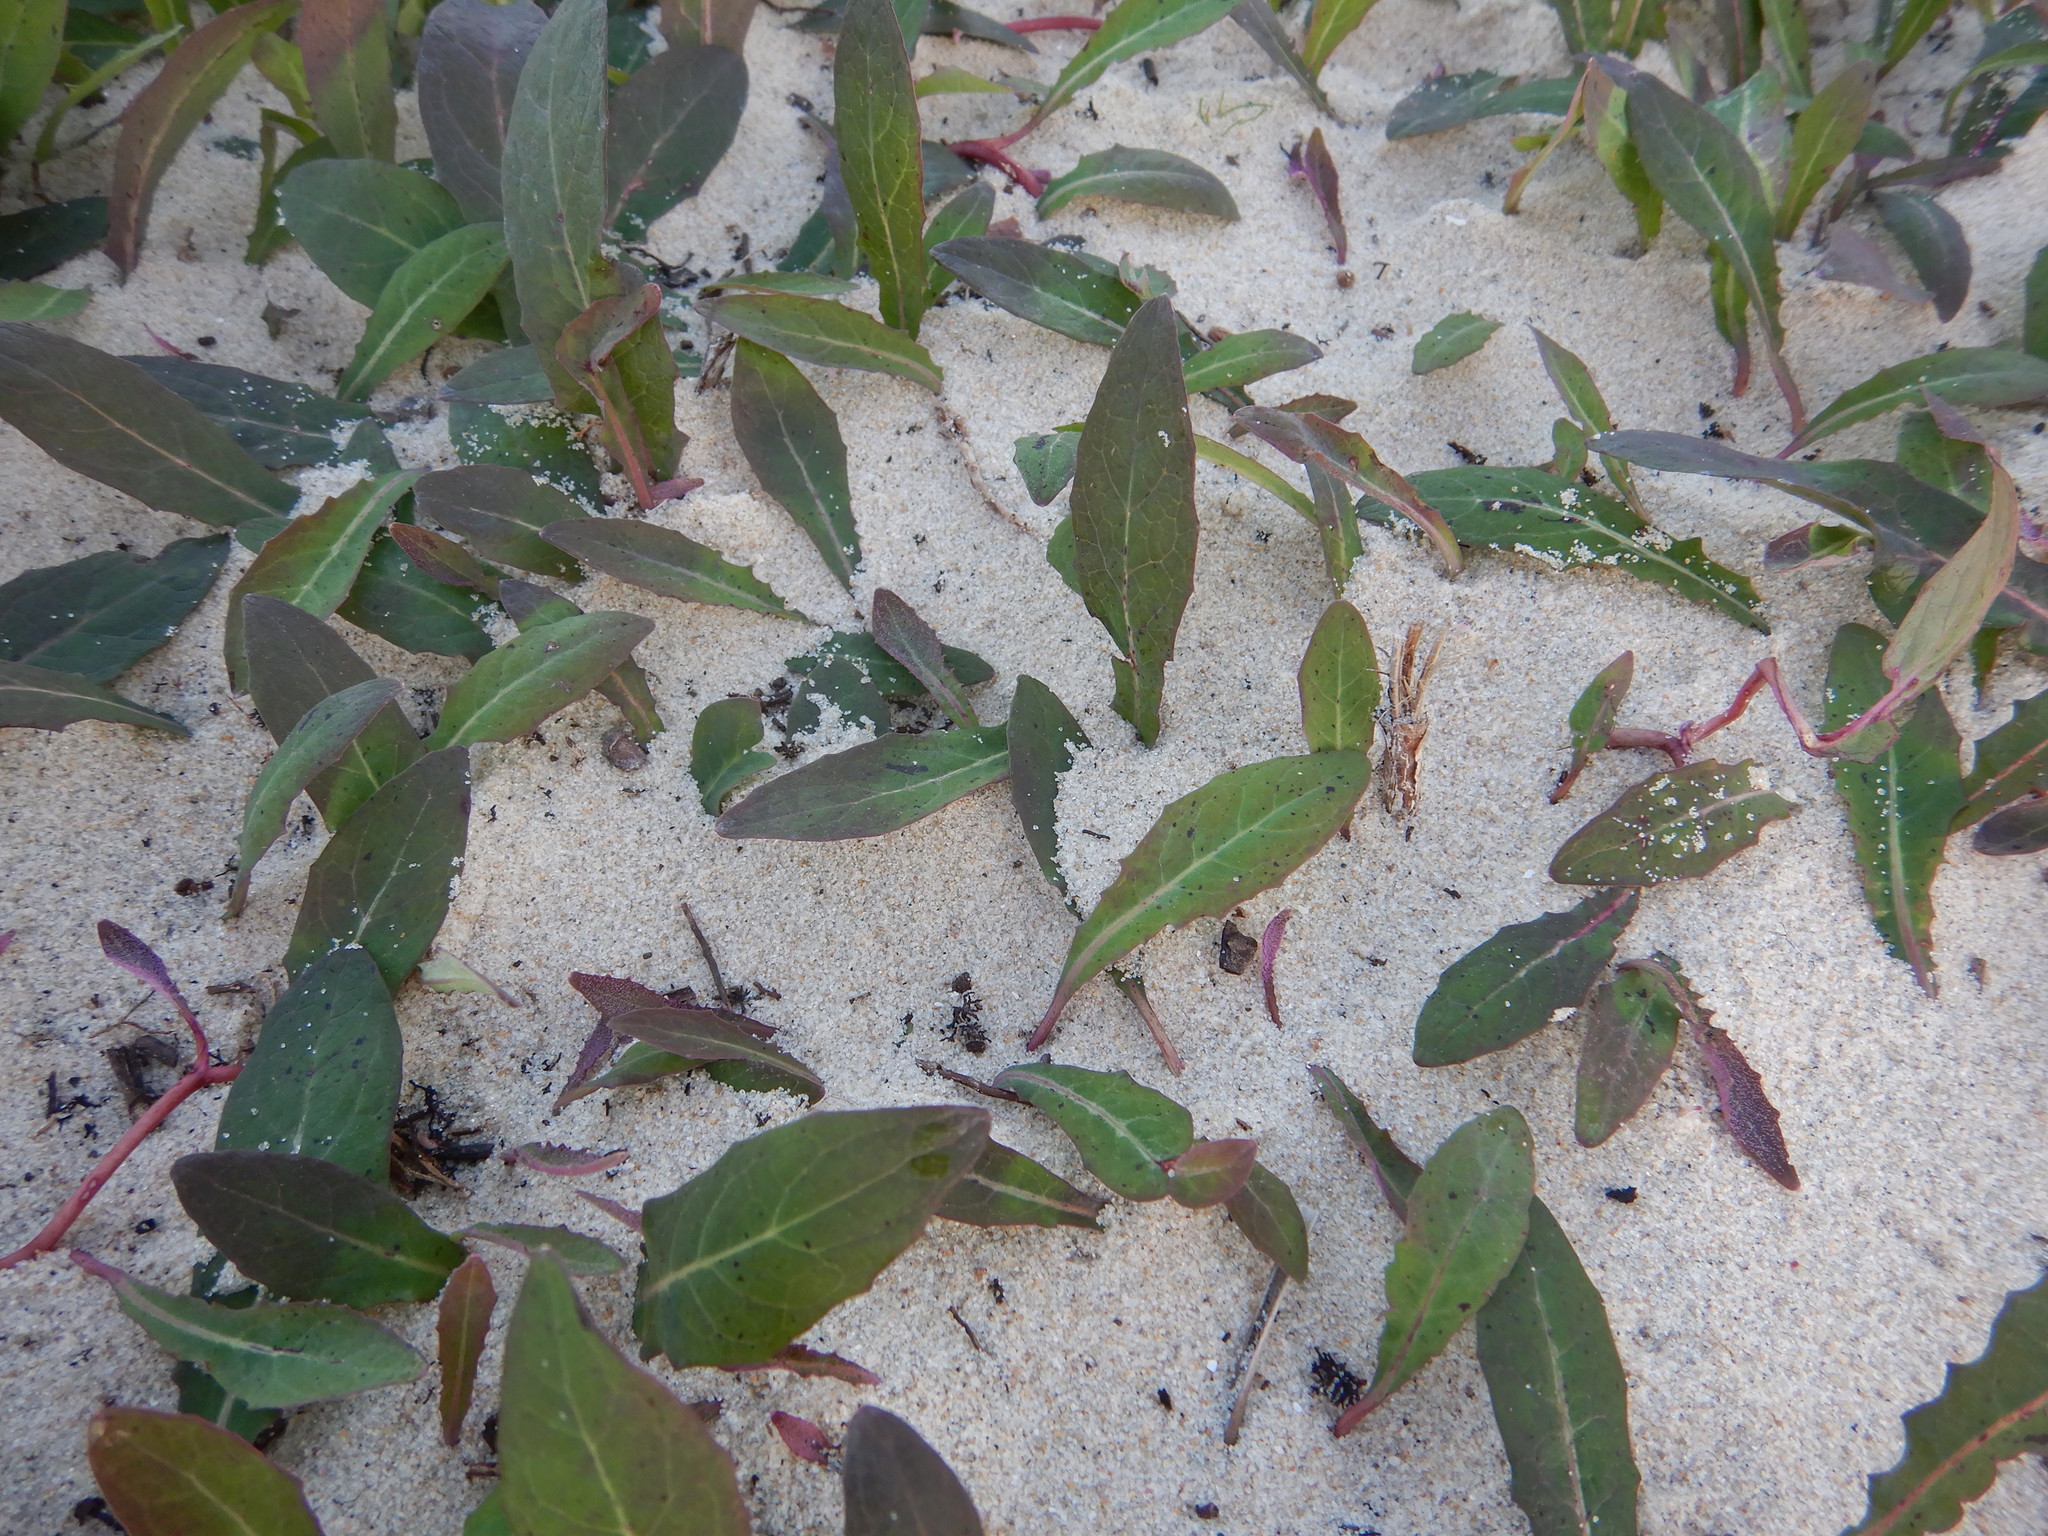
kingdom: Plantae
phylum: Tracheophyta
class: Magnoliopsida
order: Asterales
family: Asteraceae
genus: Aetheorhiza
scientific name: Aetheorhiza bulbosa
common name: Tuberous hawk's-beard
